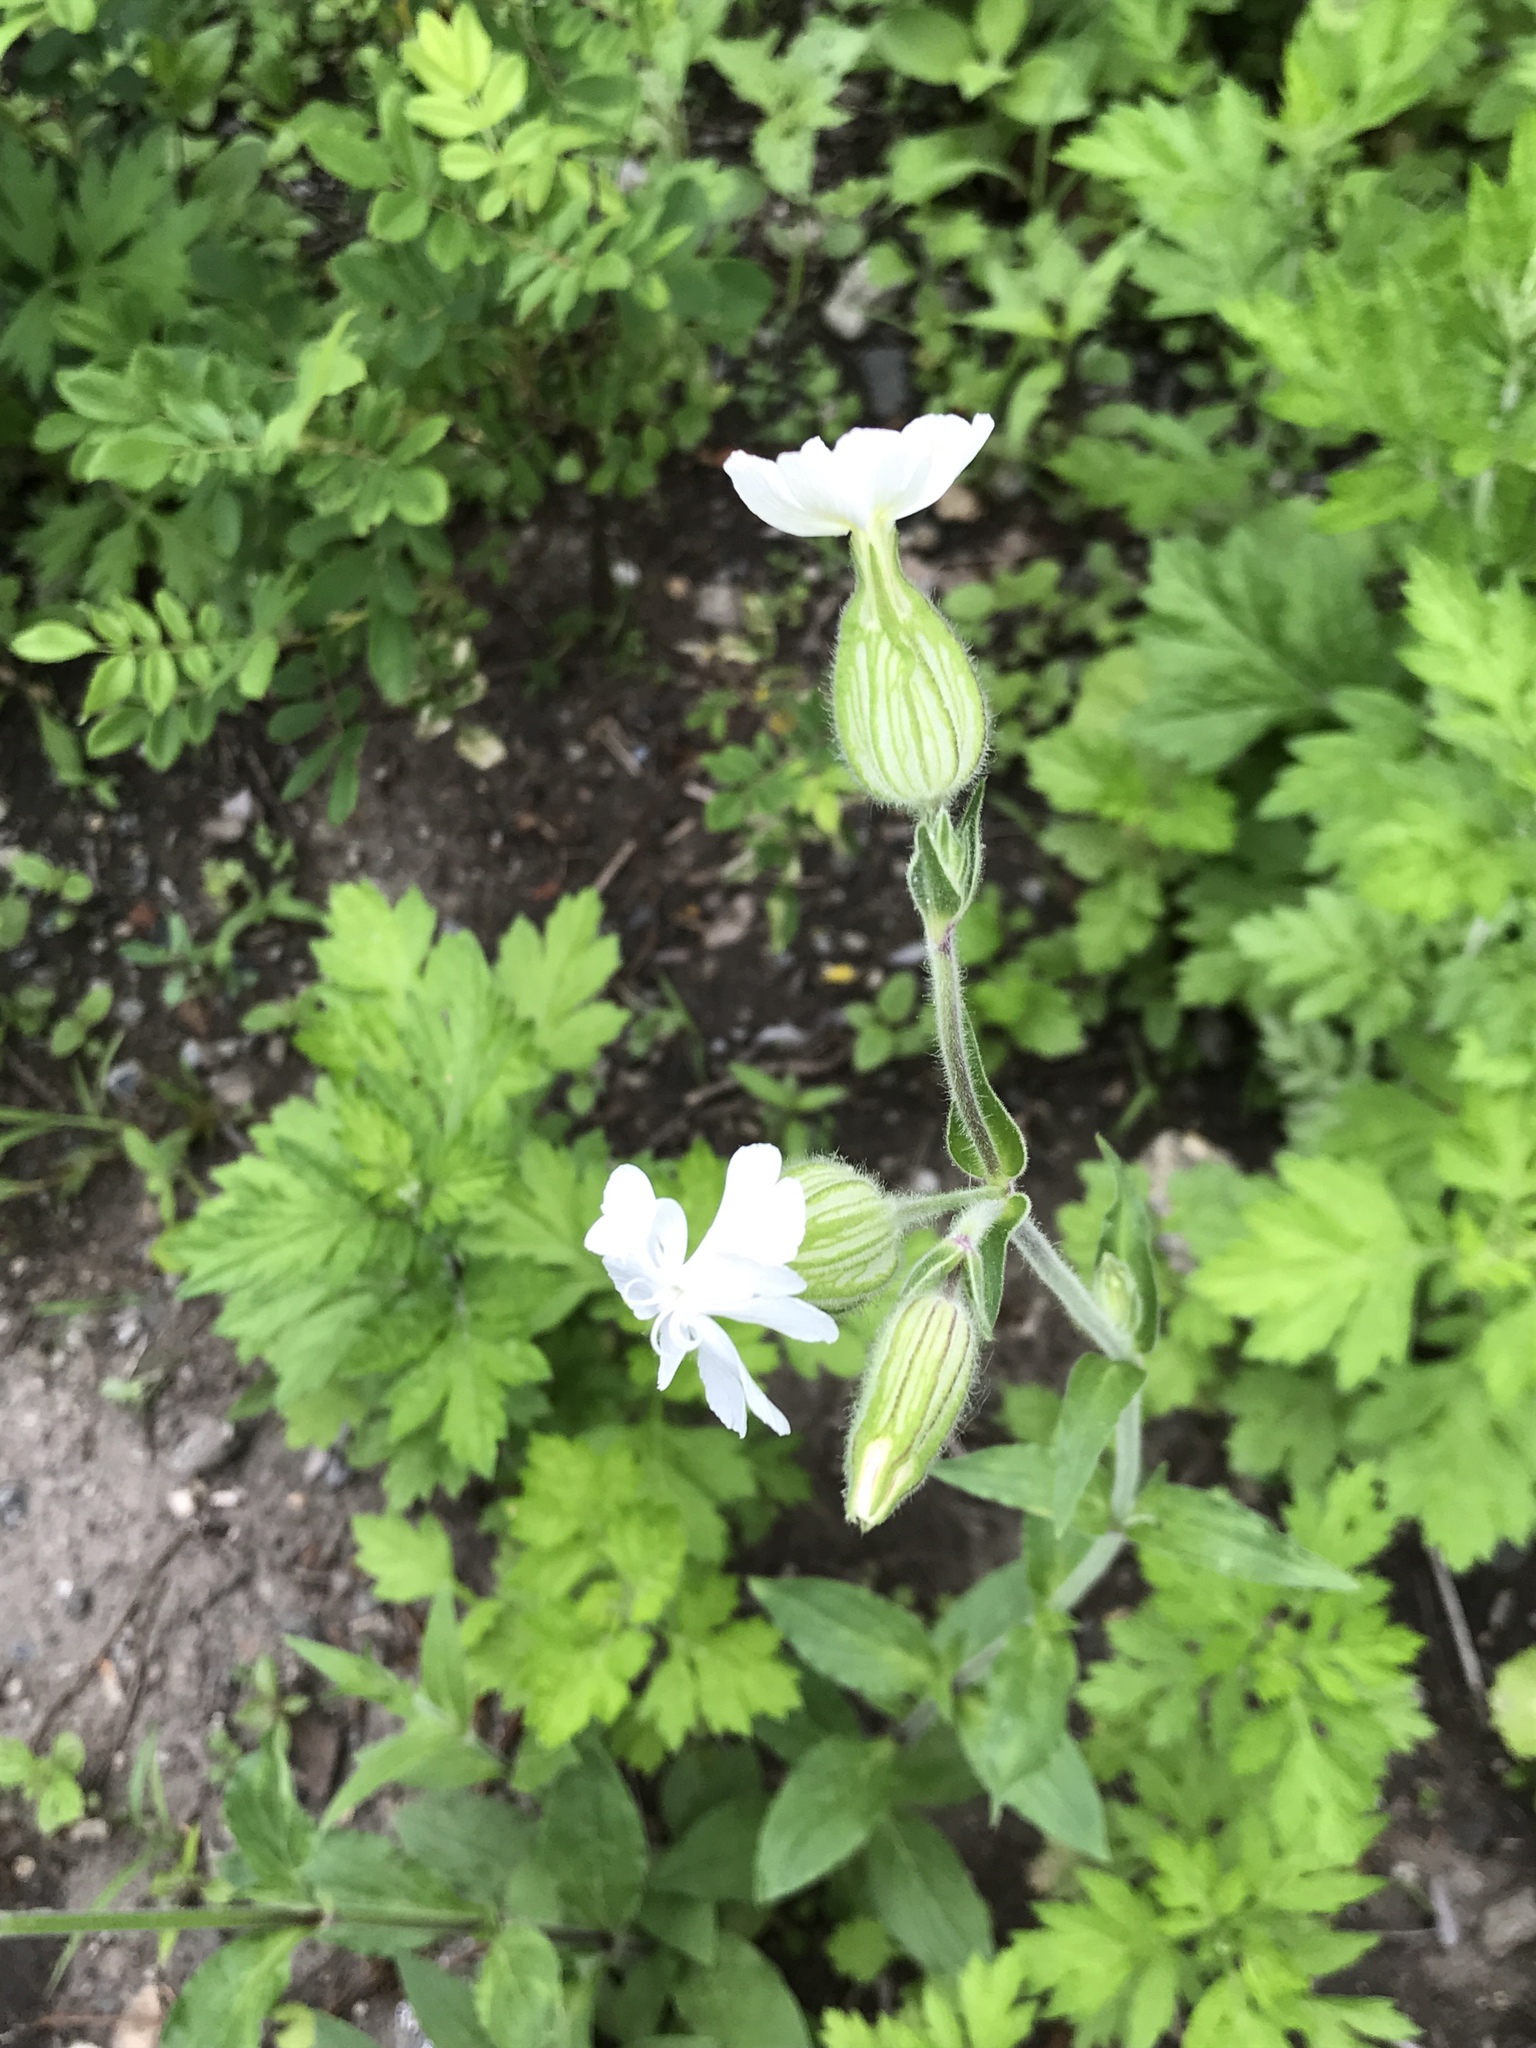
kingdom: Plantae
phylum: Tracheophyta
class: Magnoliopsida
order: Caryophyllales
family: Caryophyllaceae
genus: Silene
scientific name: Silene latifolia
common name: White campion
